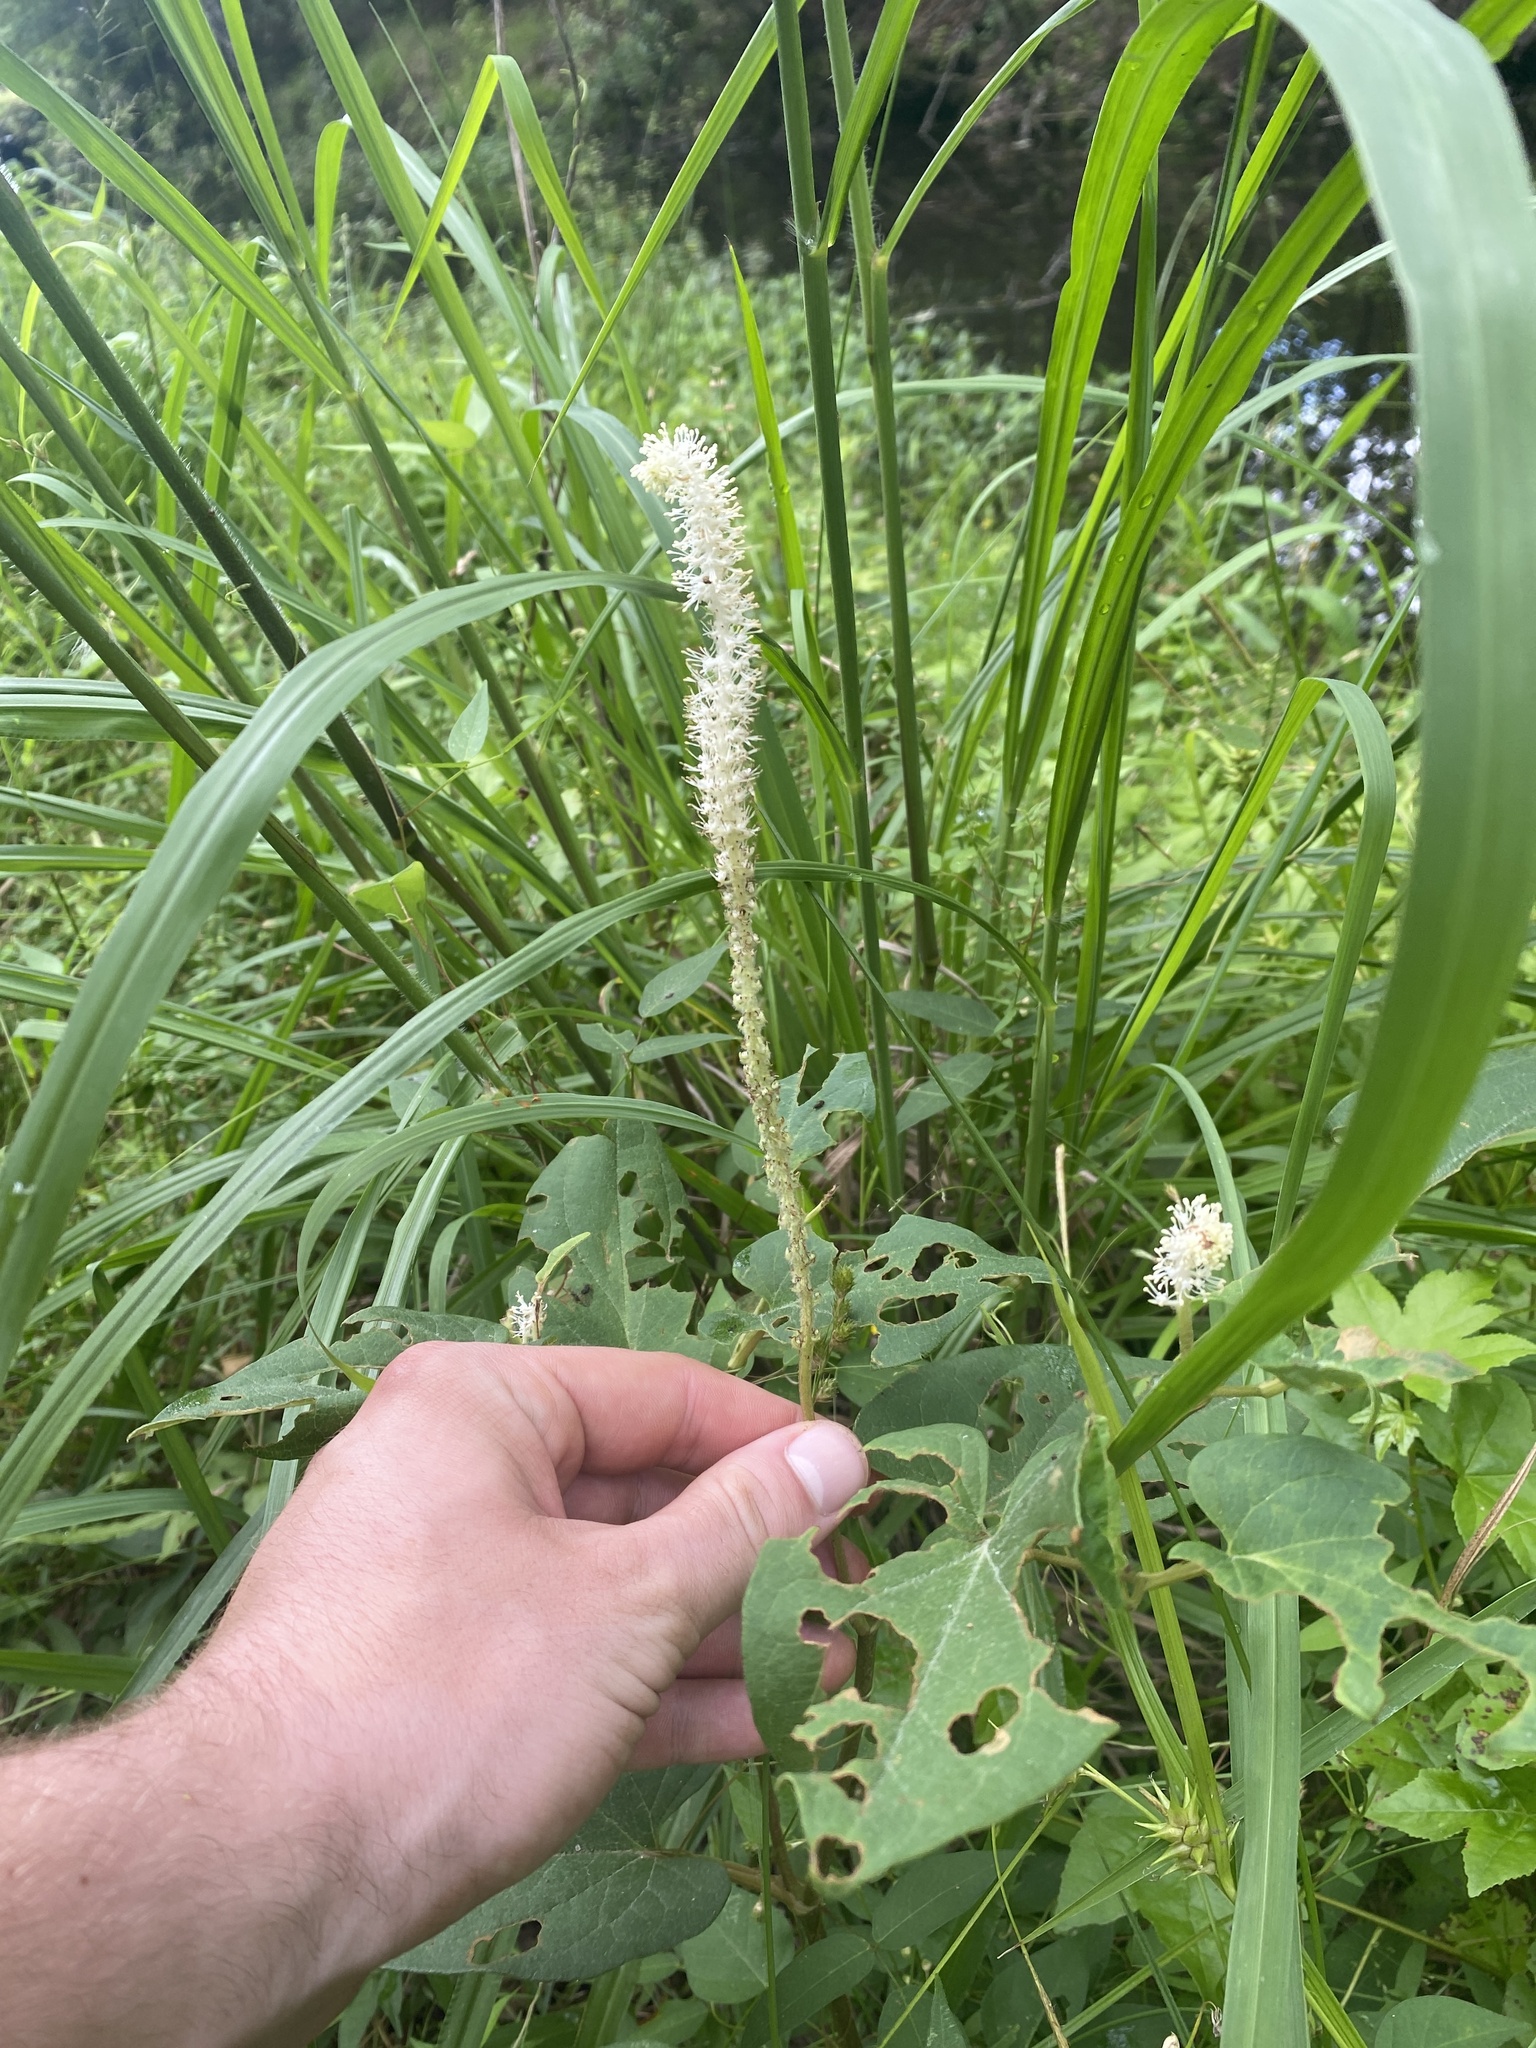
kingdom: Plantae
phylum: Tracheophyta
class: Magnoliopsida
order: Piperales
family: Saururaceae
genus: Saururus
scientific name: Saururus cernuus
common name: Lizard's-tail
